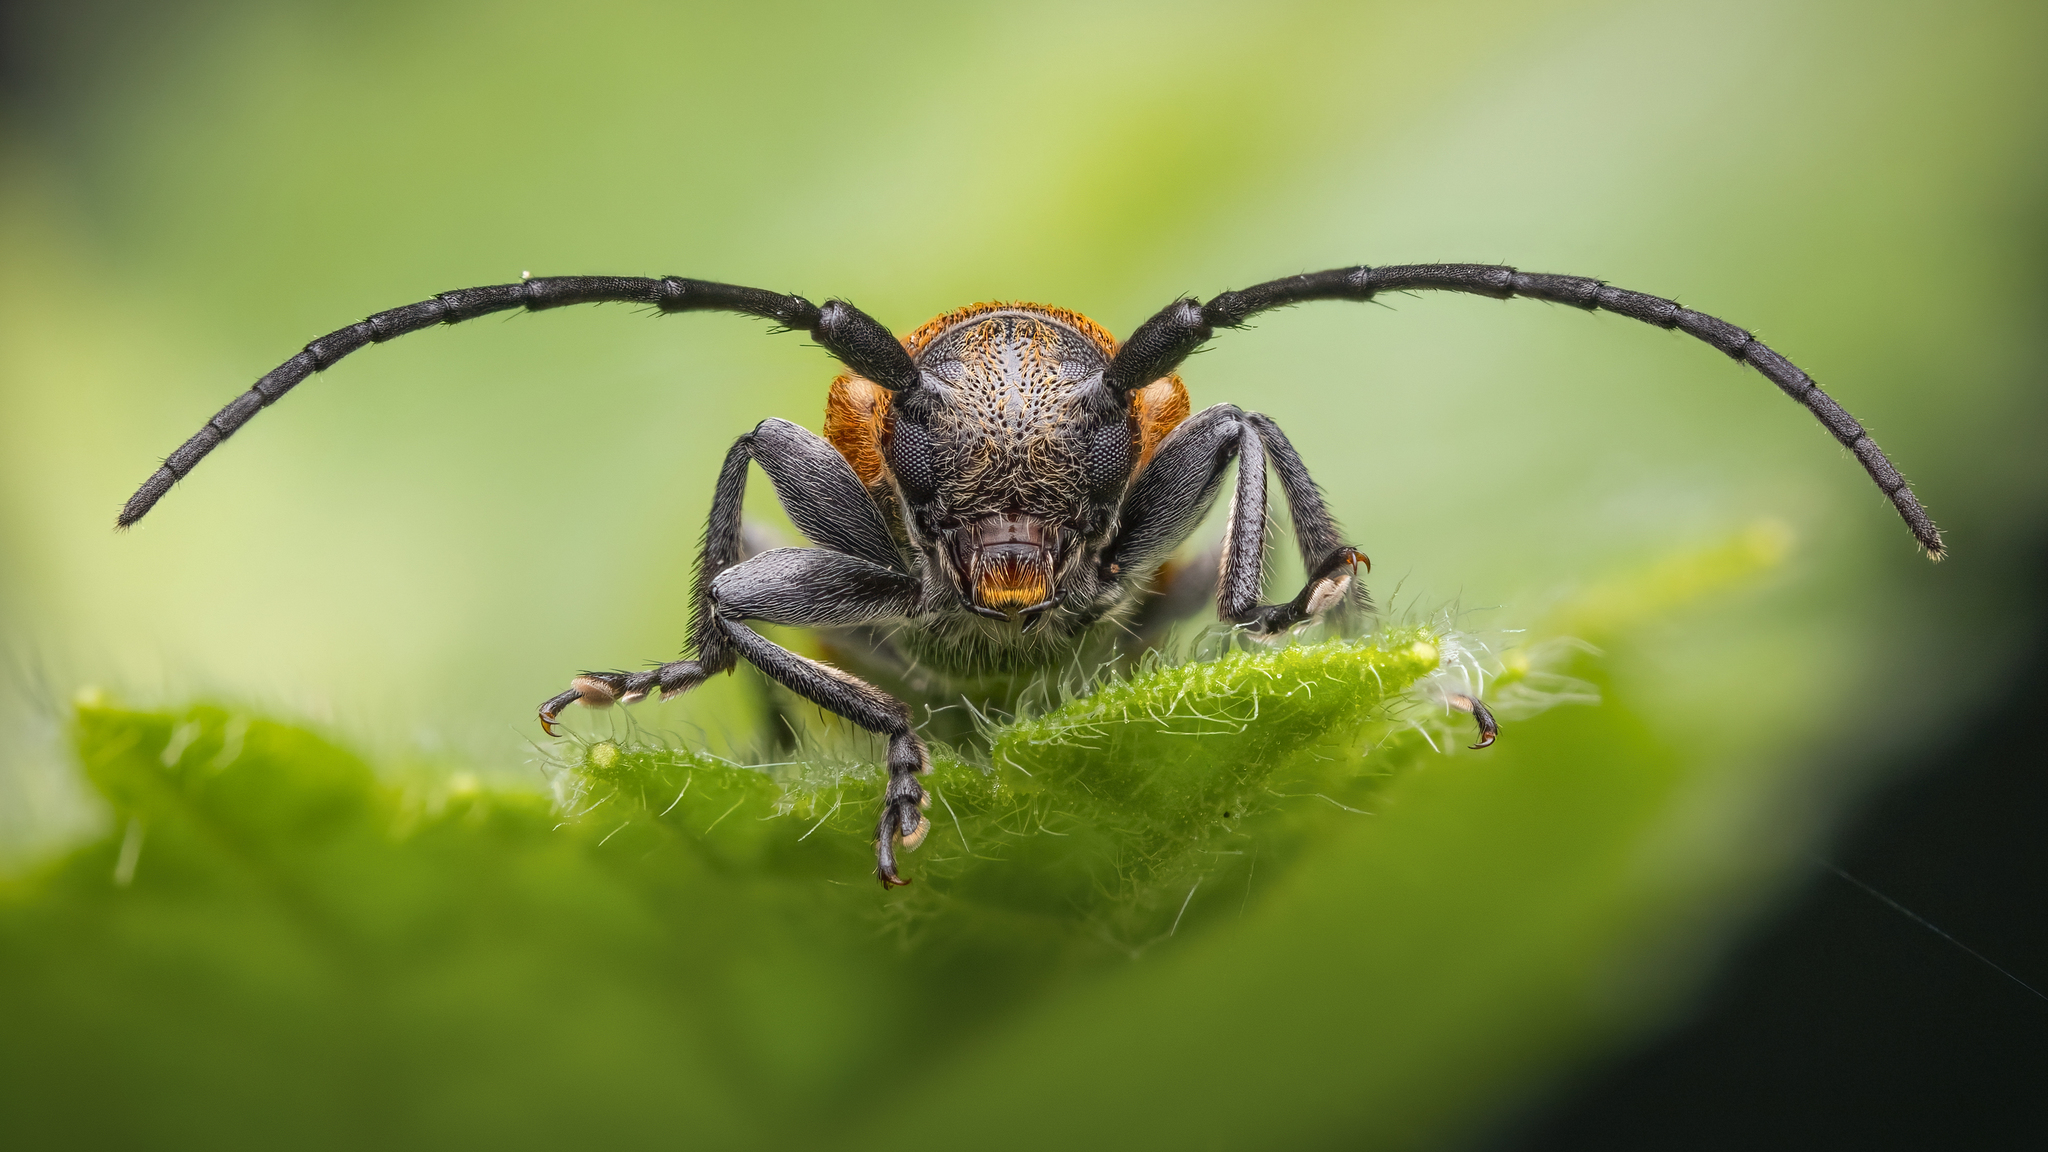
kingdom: Animalia
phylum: Arthropoda
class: Insecta
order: Coleoptera
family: Cerambycidae
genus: Anaesthetis
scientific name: Anaesthetis testacea
